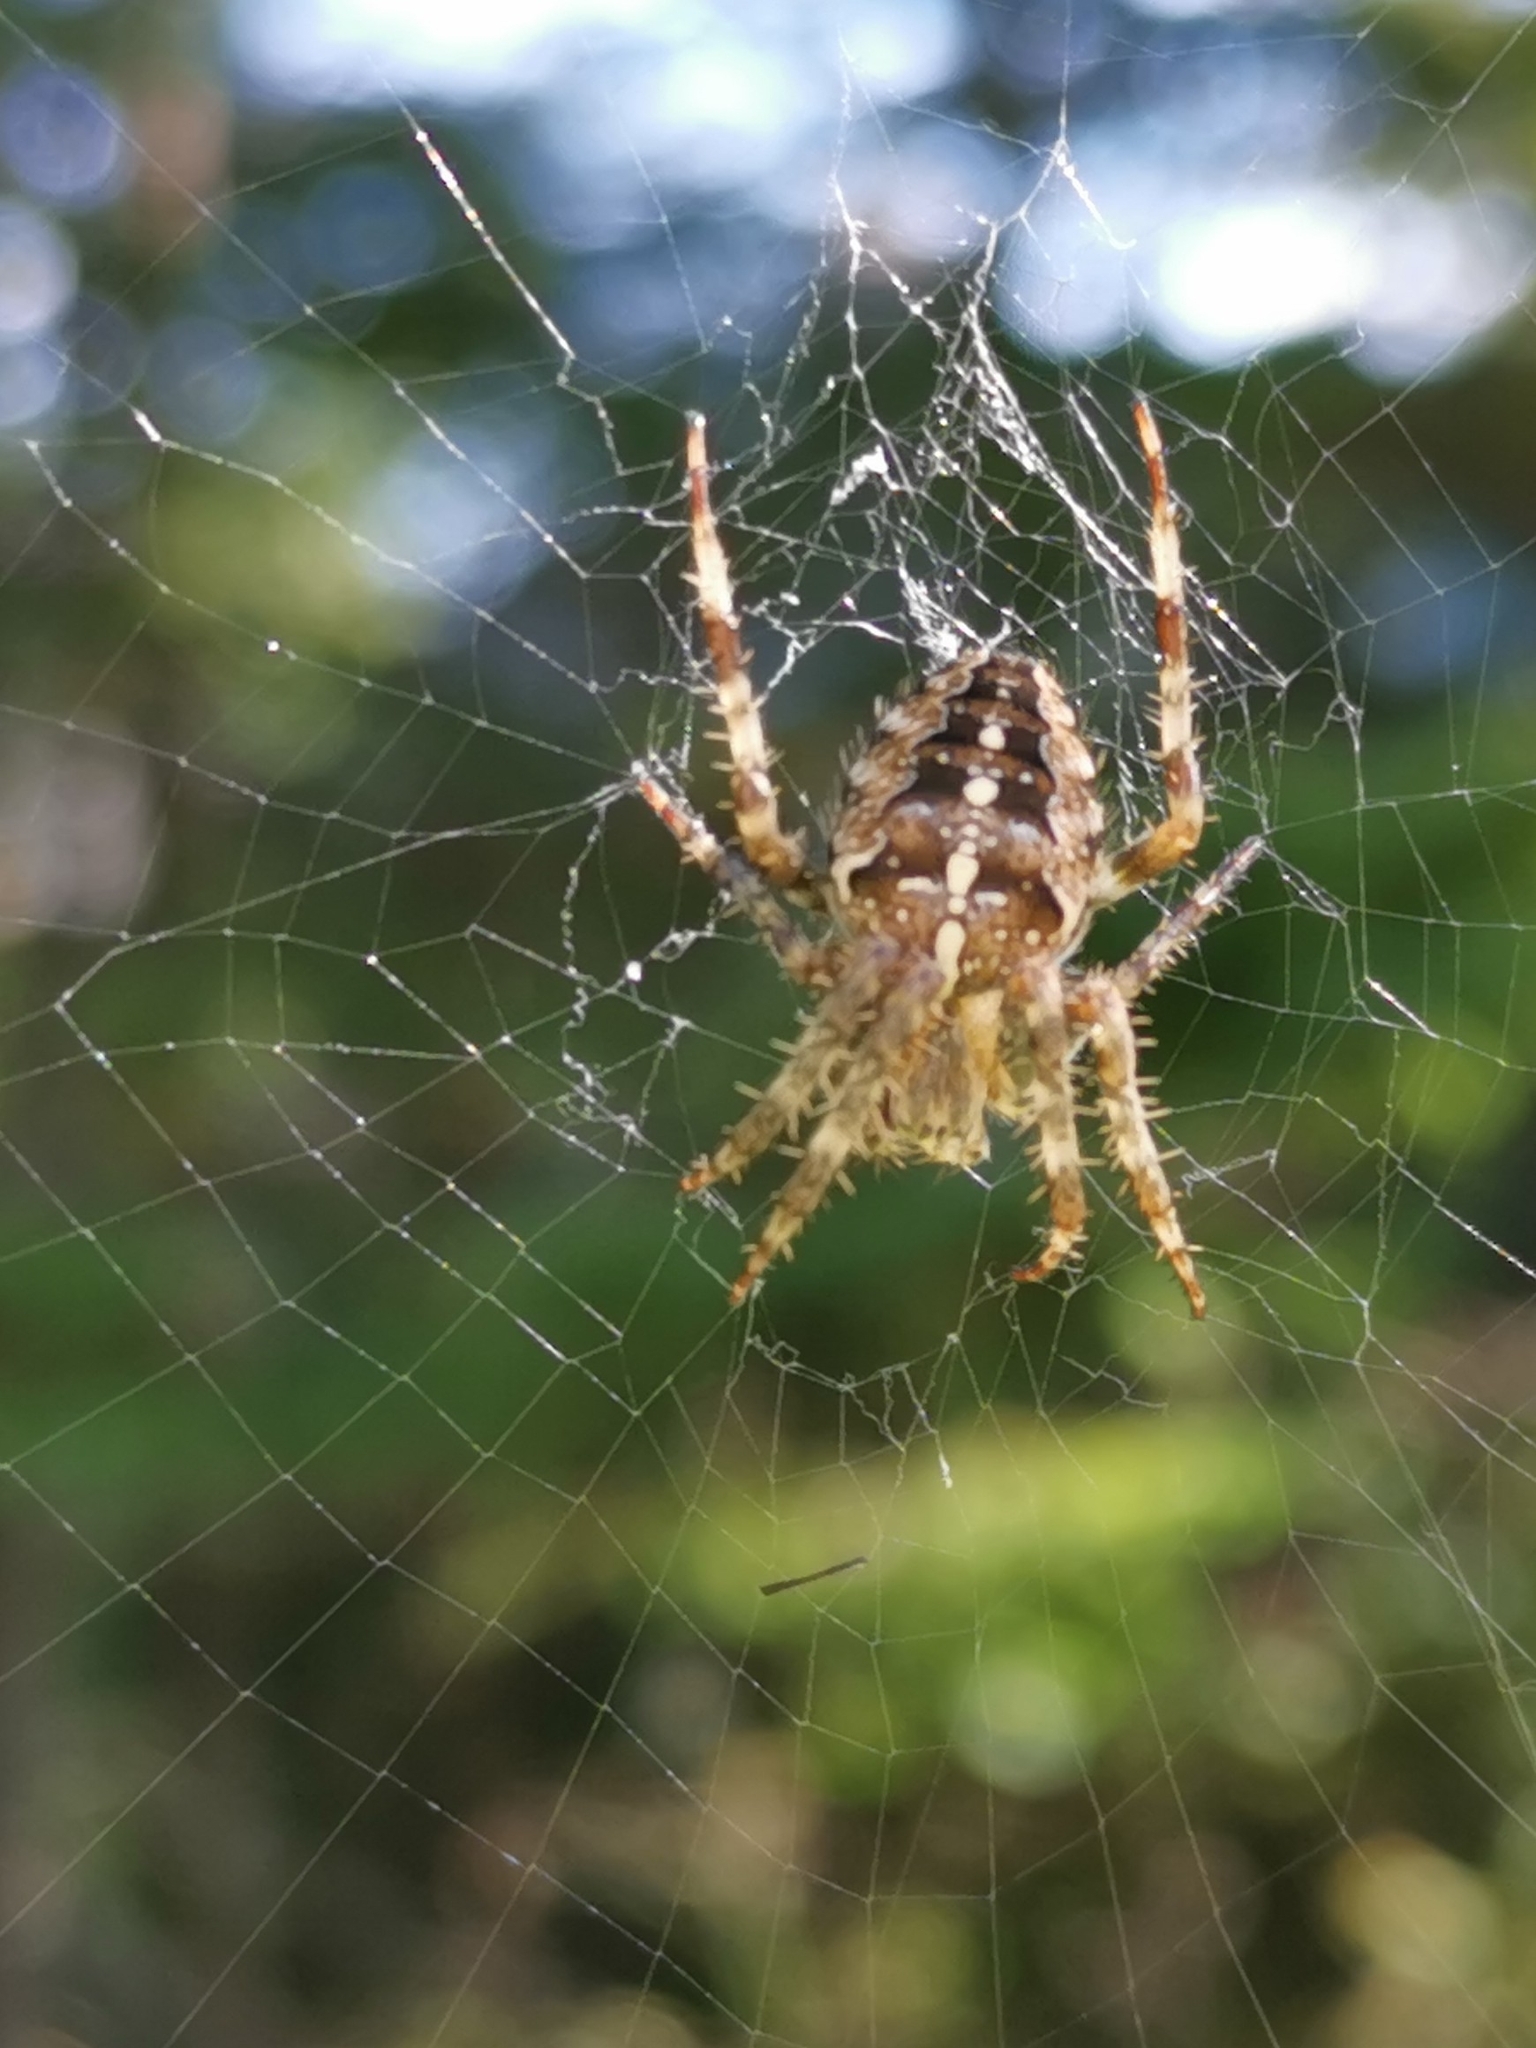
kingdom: Animalia
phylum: Arthropoda
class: Arachnida
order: Araneae
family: Araneidae
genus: Araneus
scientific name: Araneus diadematus
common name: Cross orbweaver
